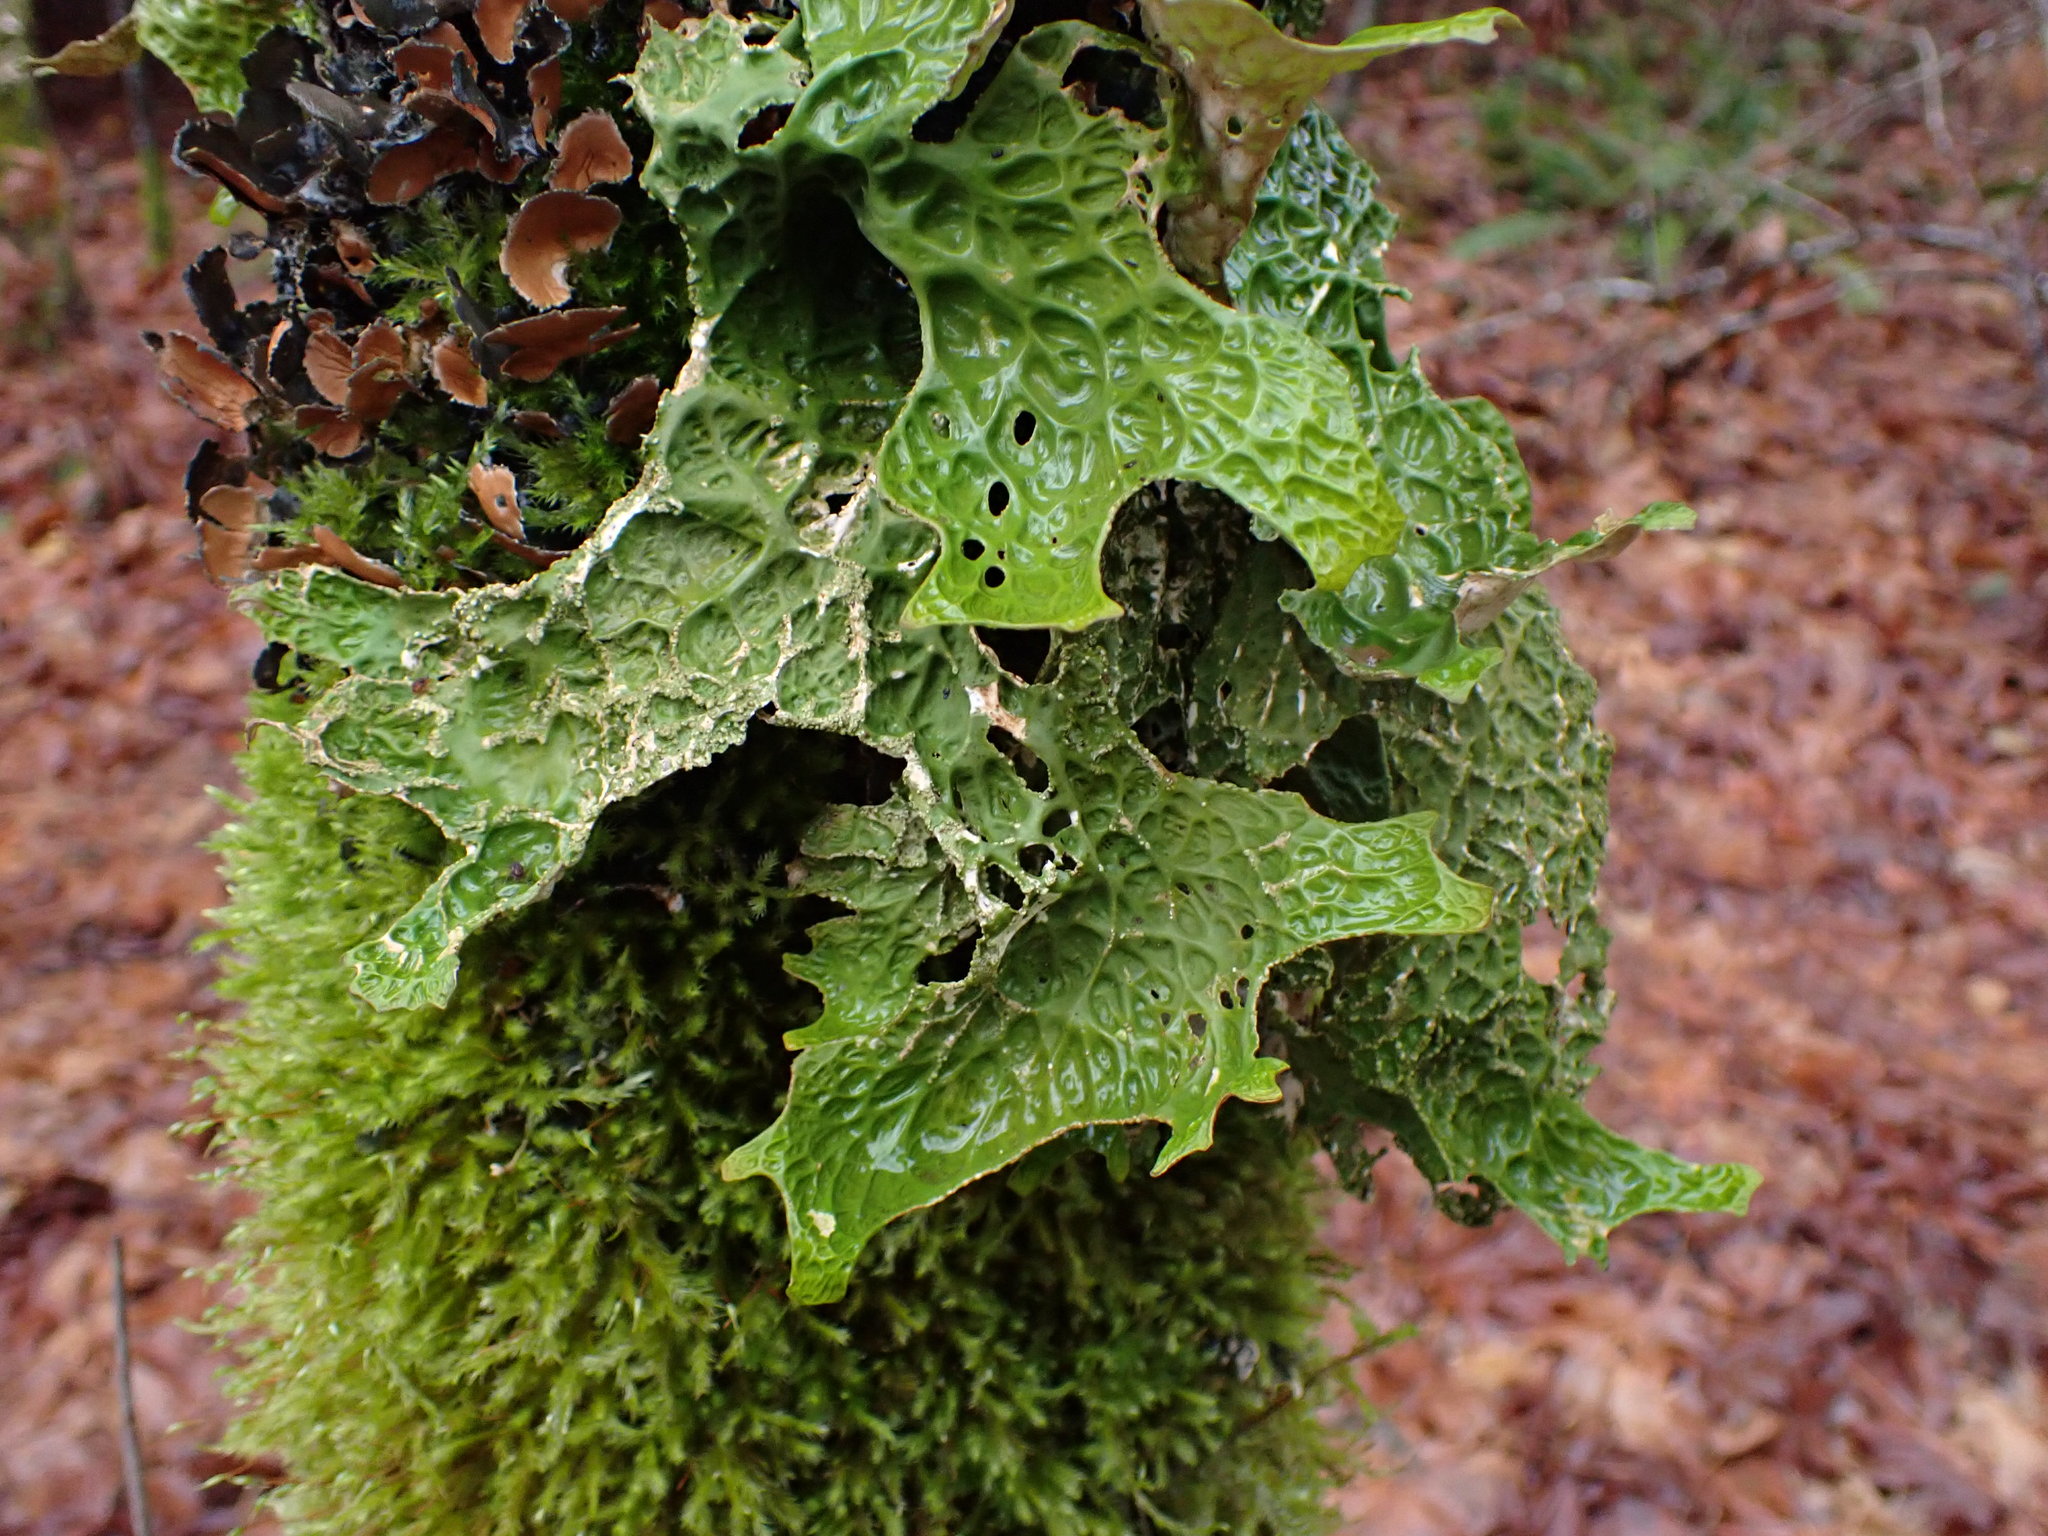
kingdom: Fungi
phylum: Ascomycota
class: Lecanoromycetes
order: Peltigerales
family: Lobariaceae
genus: Lobaria
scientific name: Lobaria pulmonaria
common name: Lungwort
